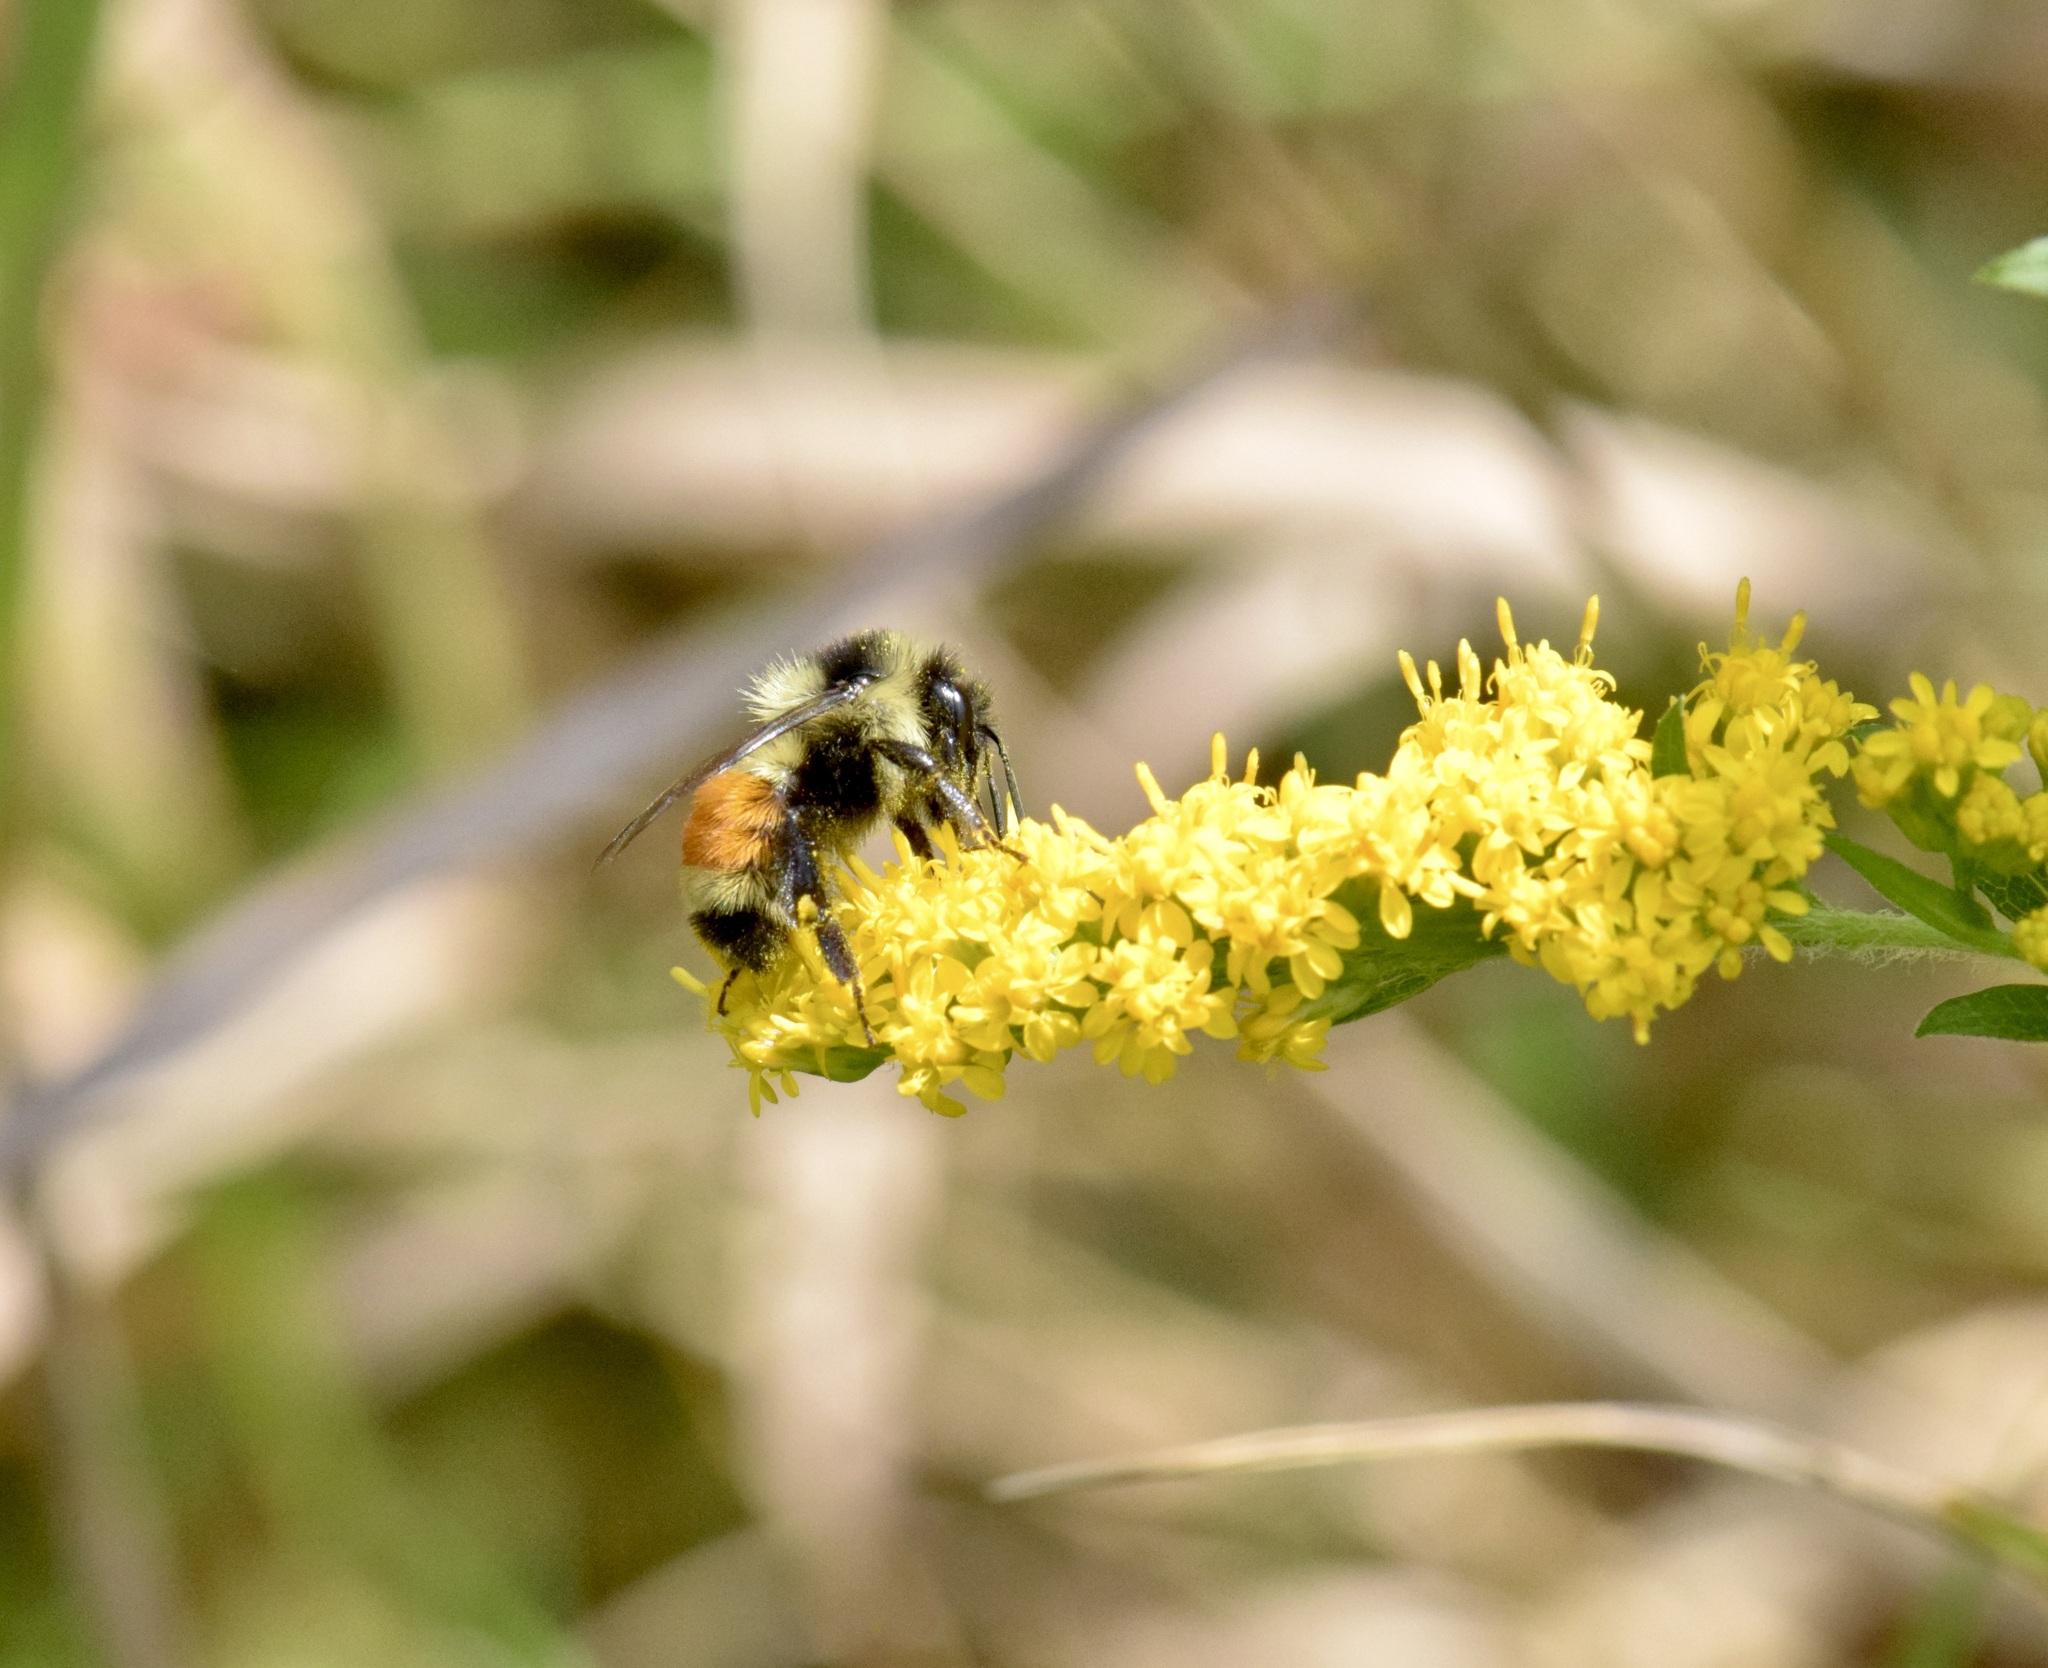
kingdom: Animalia
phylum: Arthropoda
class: Insecta
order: Hymenoptera
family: Apidae
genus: Bombus
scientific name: Bombus ternarius
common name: Tri-colored bumble bee
